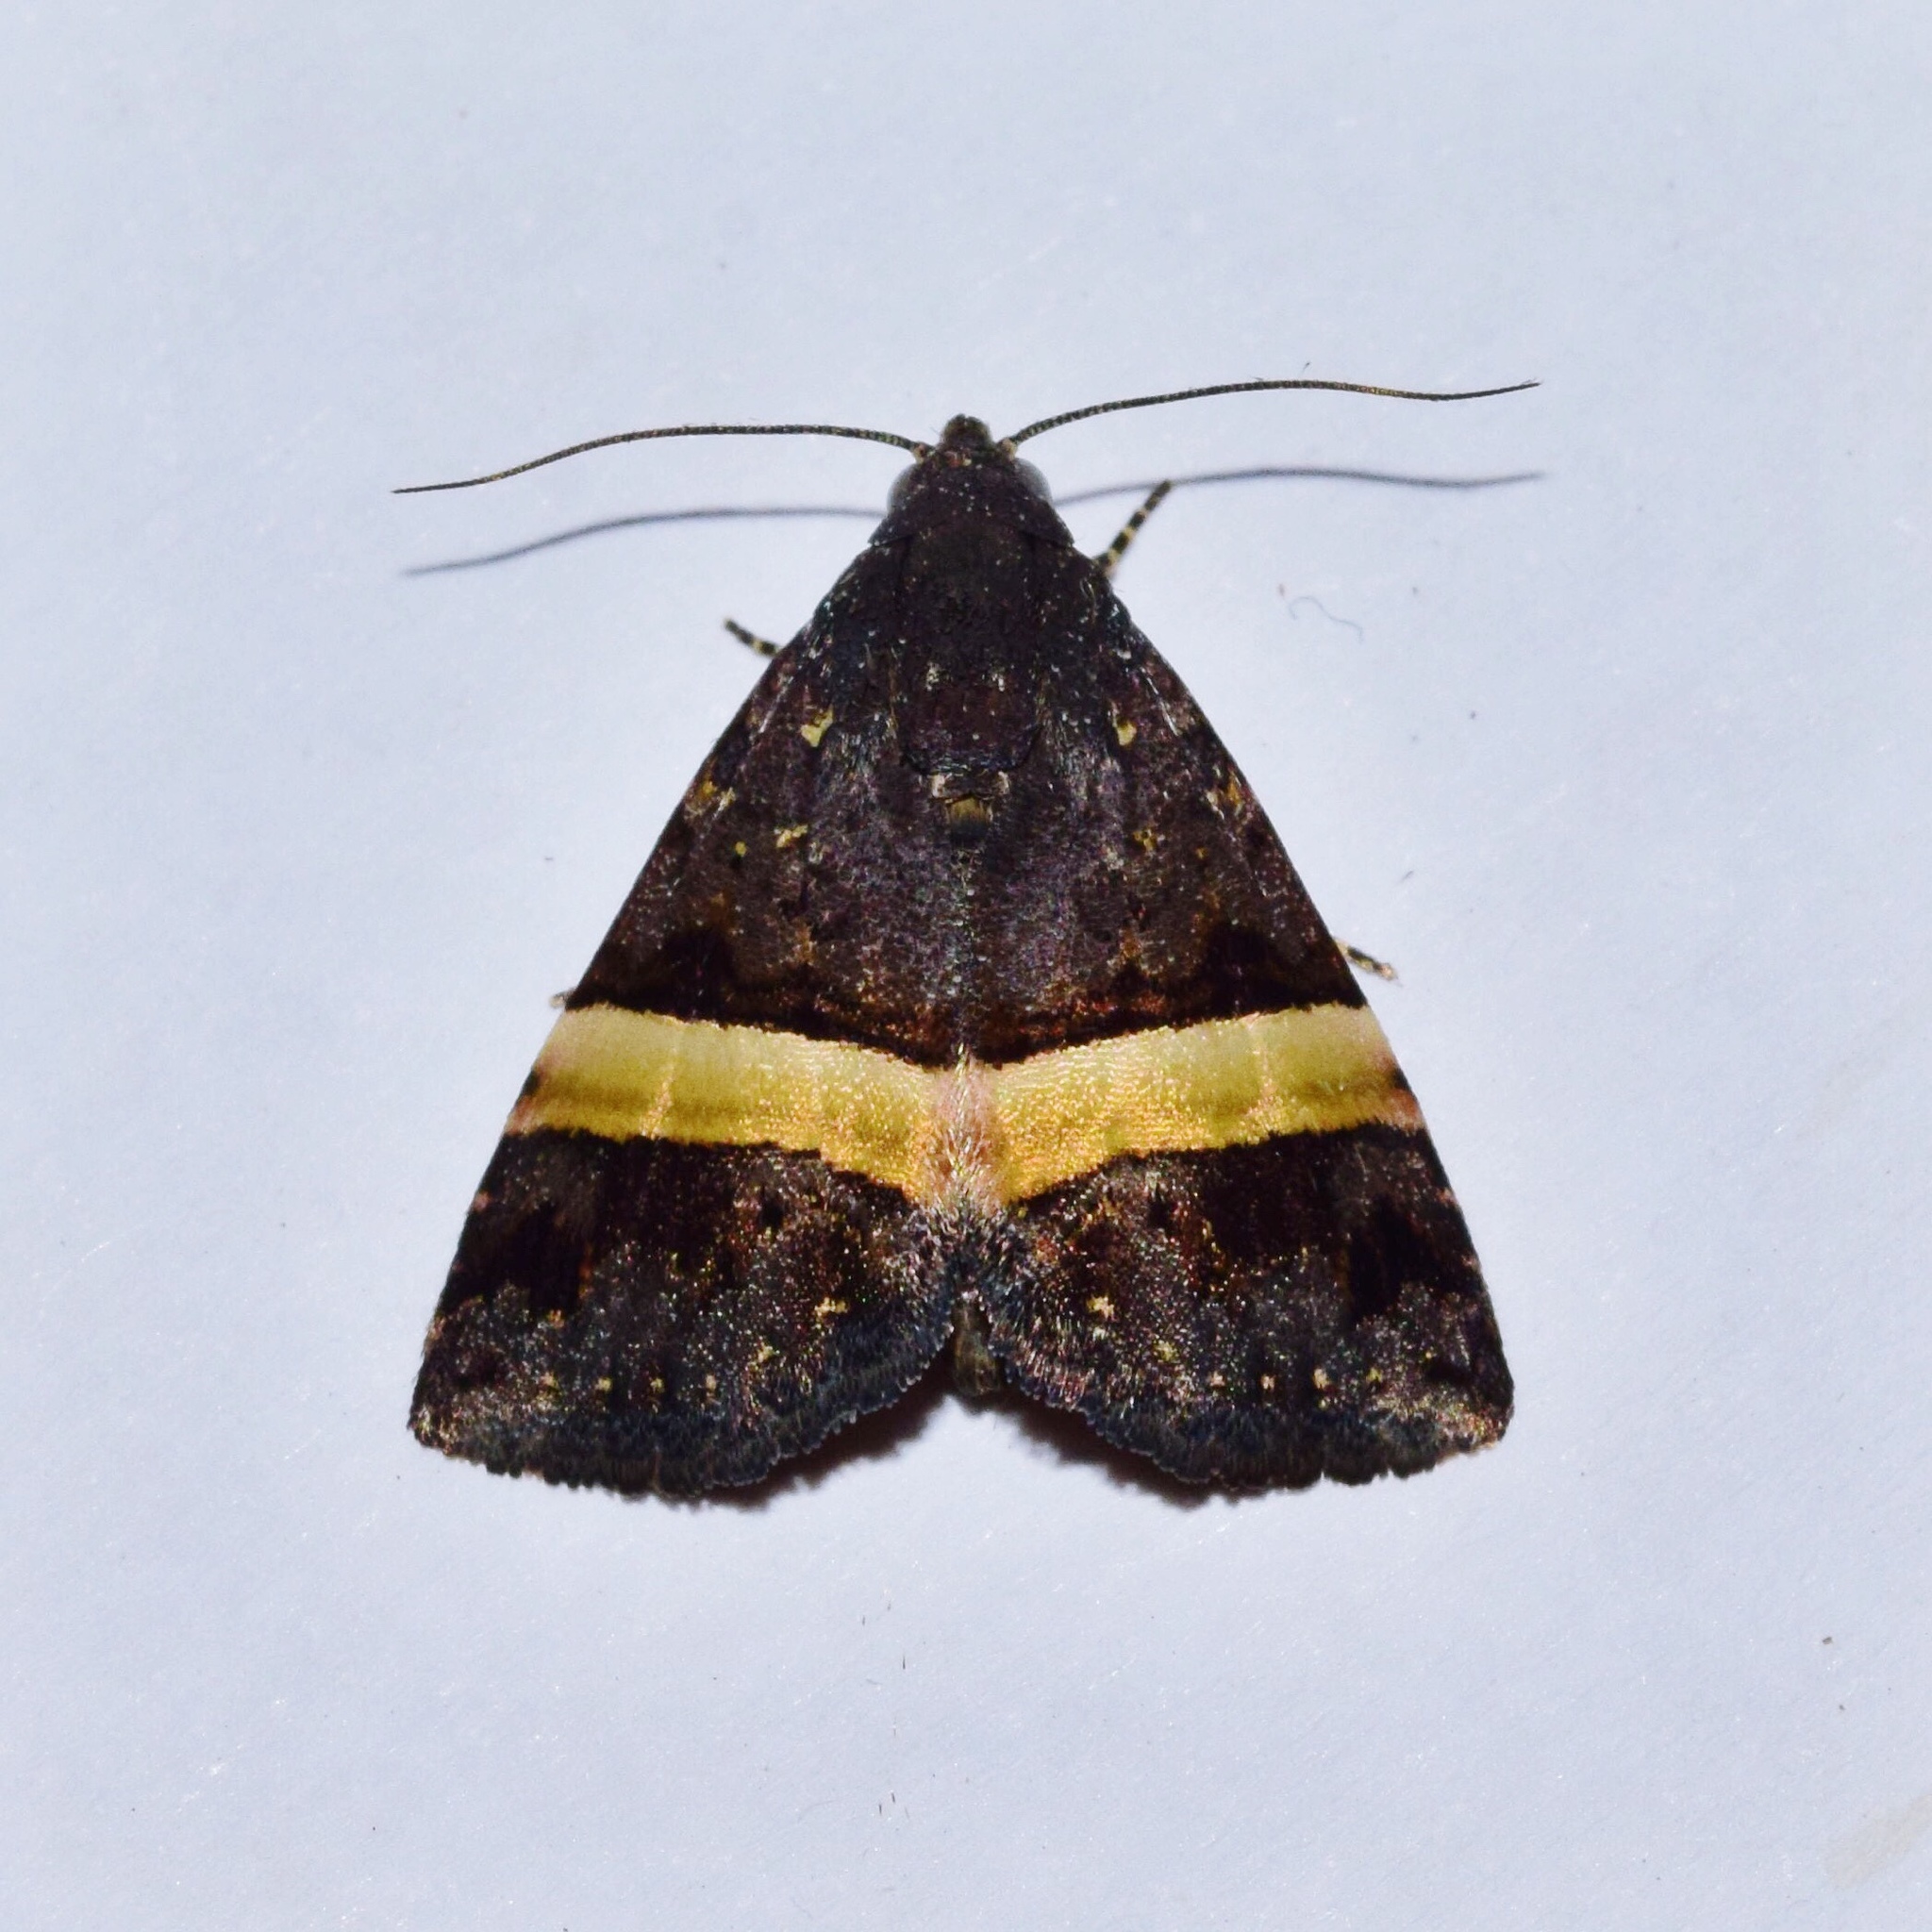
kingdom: Animalia
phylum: Arthropoda
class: Insecta
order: Lepidoptera
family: Noctuidae
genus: Ozarba
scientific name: Ozarba abscissa
